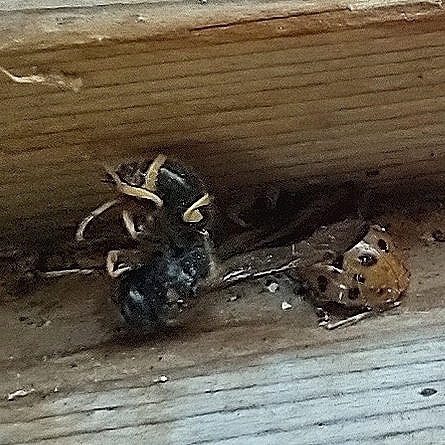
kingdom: Animalia
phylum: Arthropoda
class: Insecta
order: Hymenoptera
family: Vespidae
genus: Ancistrocerus
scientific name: Ancistrocerus campestris
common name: Smiling mason wasp
